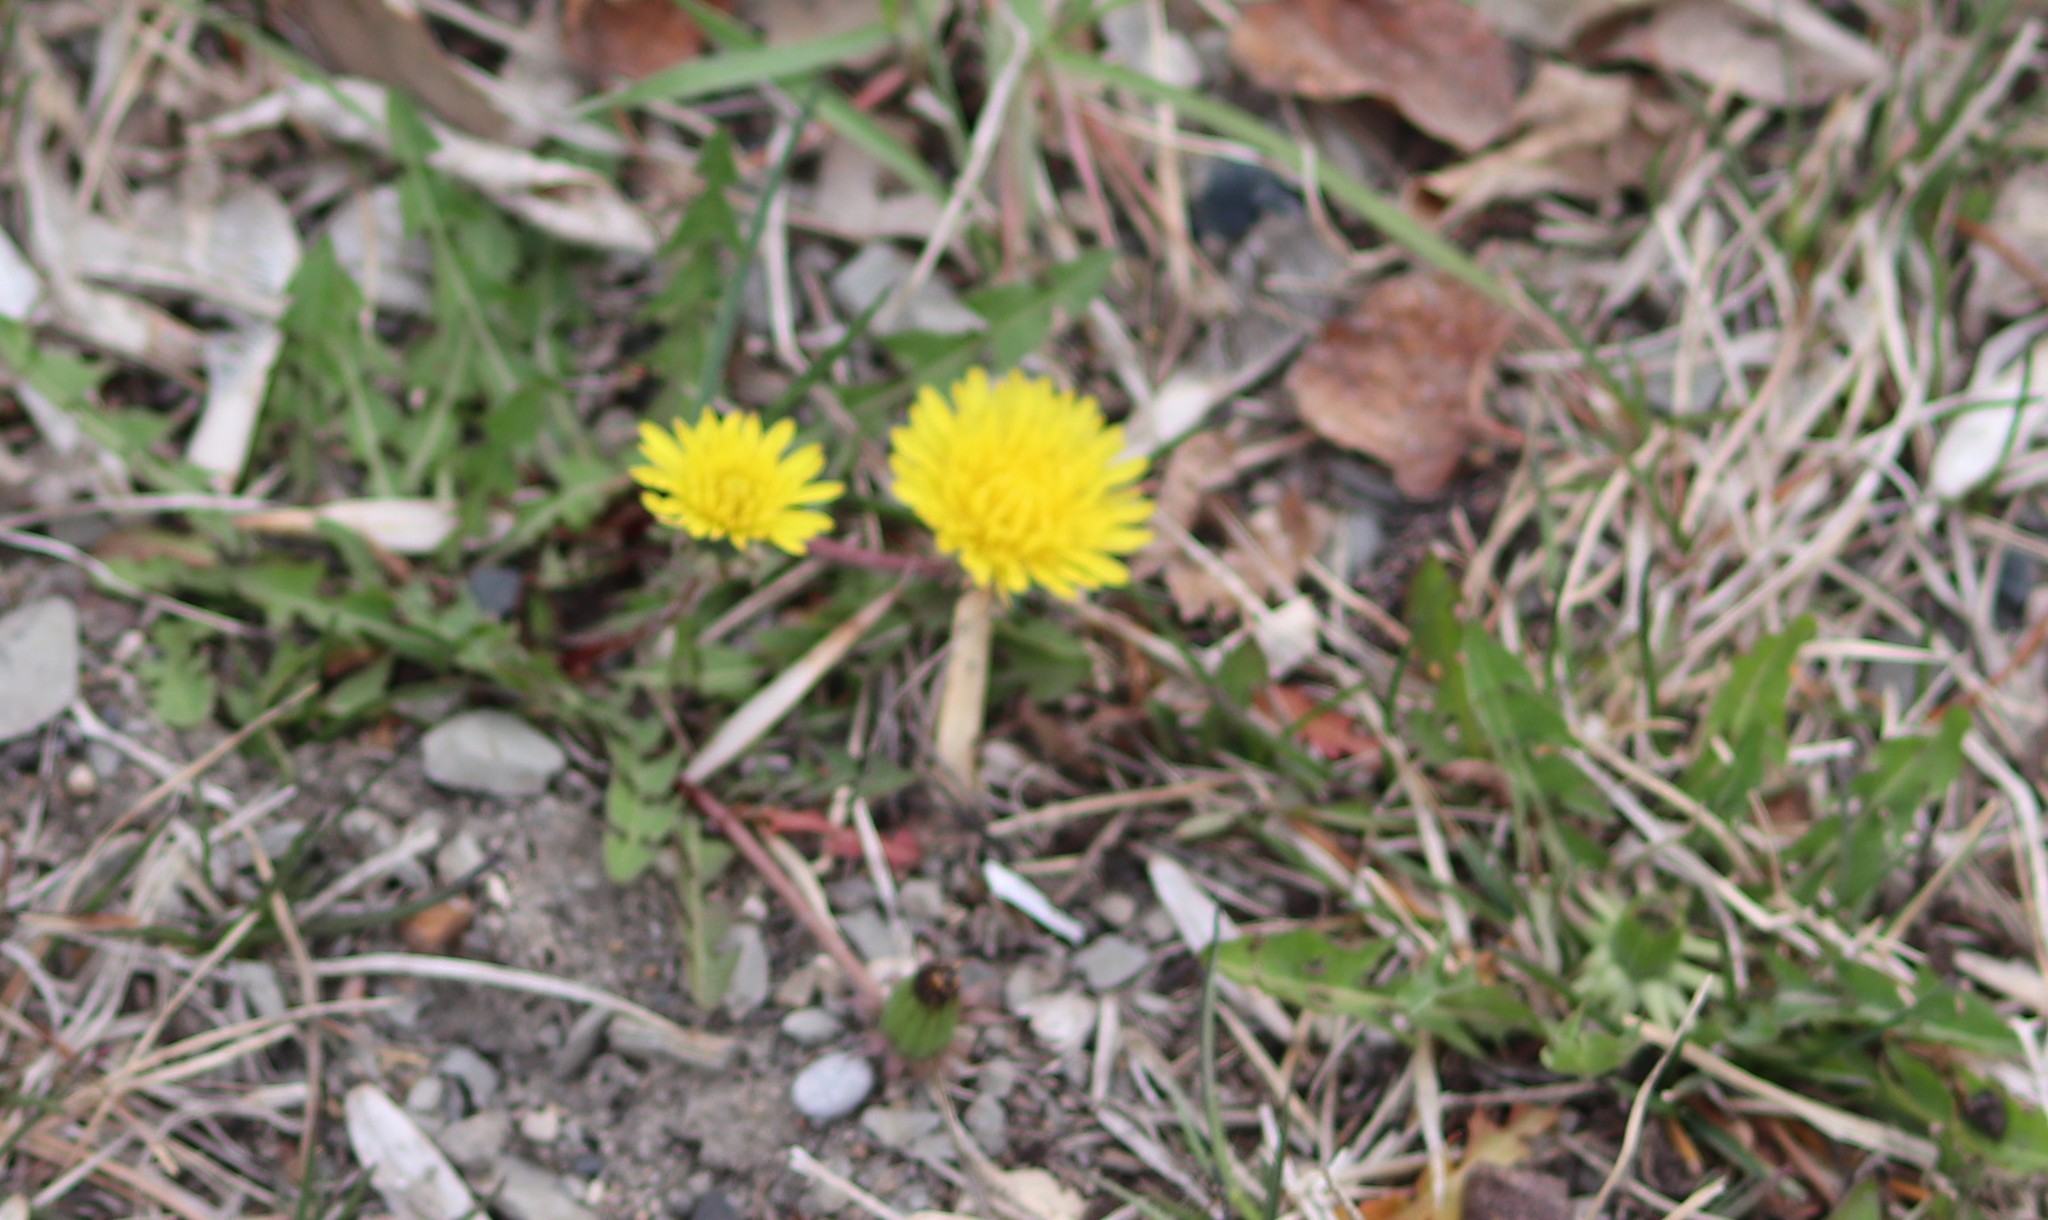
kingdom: Plantae
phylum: Tracheophyta
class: Magnoliopsida
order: Asterales
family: Asteraceae
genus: Taraxacum
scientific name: Taraxacum officinale
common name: Common dandelion
